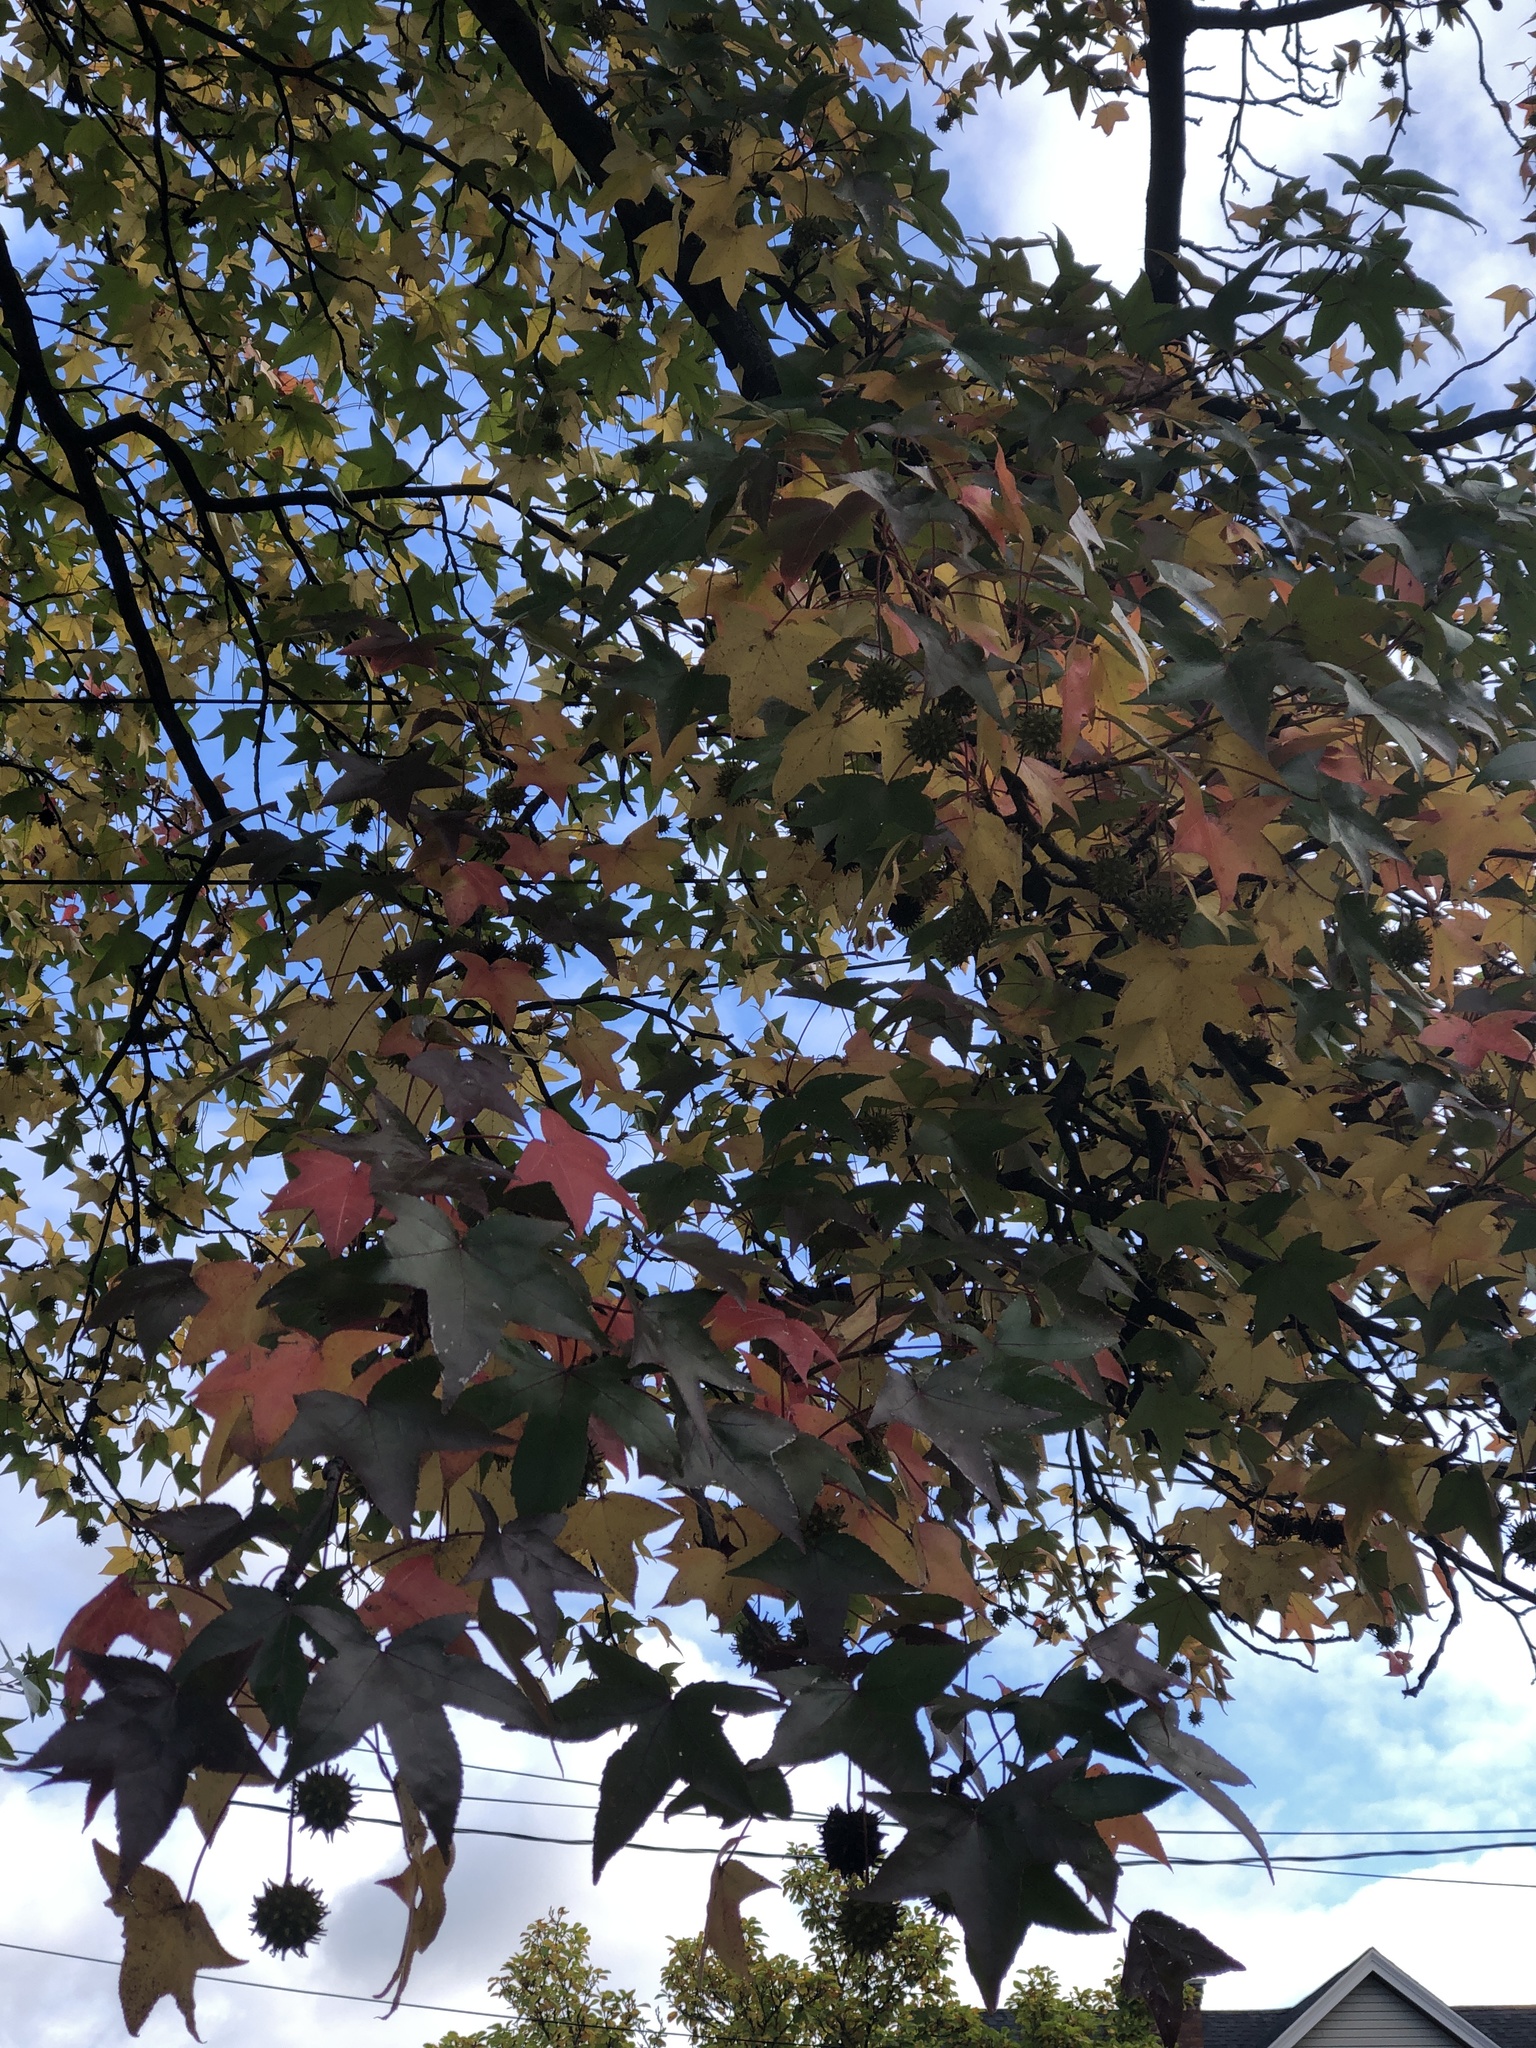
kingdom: Plantae
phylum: Tracheophyta
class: Magnoliopsida
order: Saxifragales
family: Altingiaceae
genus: Liquidambar
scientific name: Liquidambar styraciflua
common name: Sweet gum
